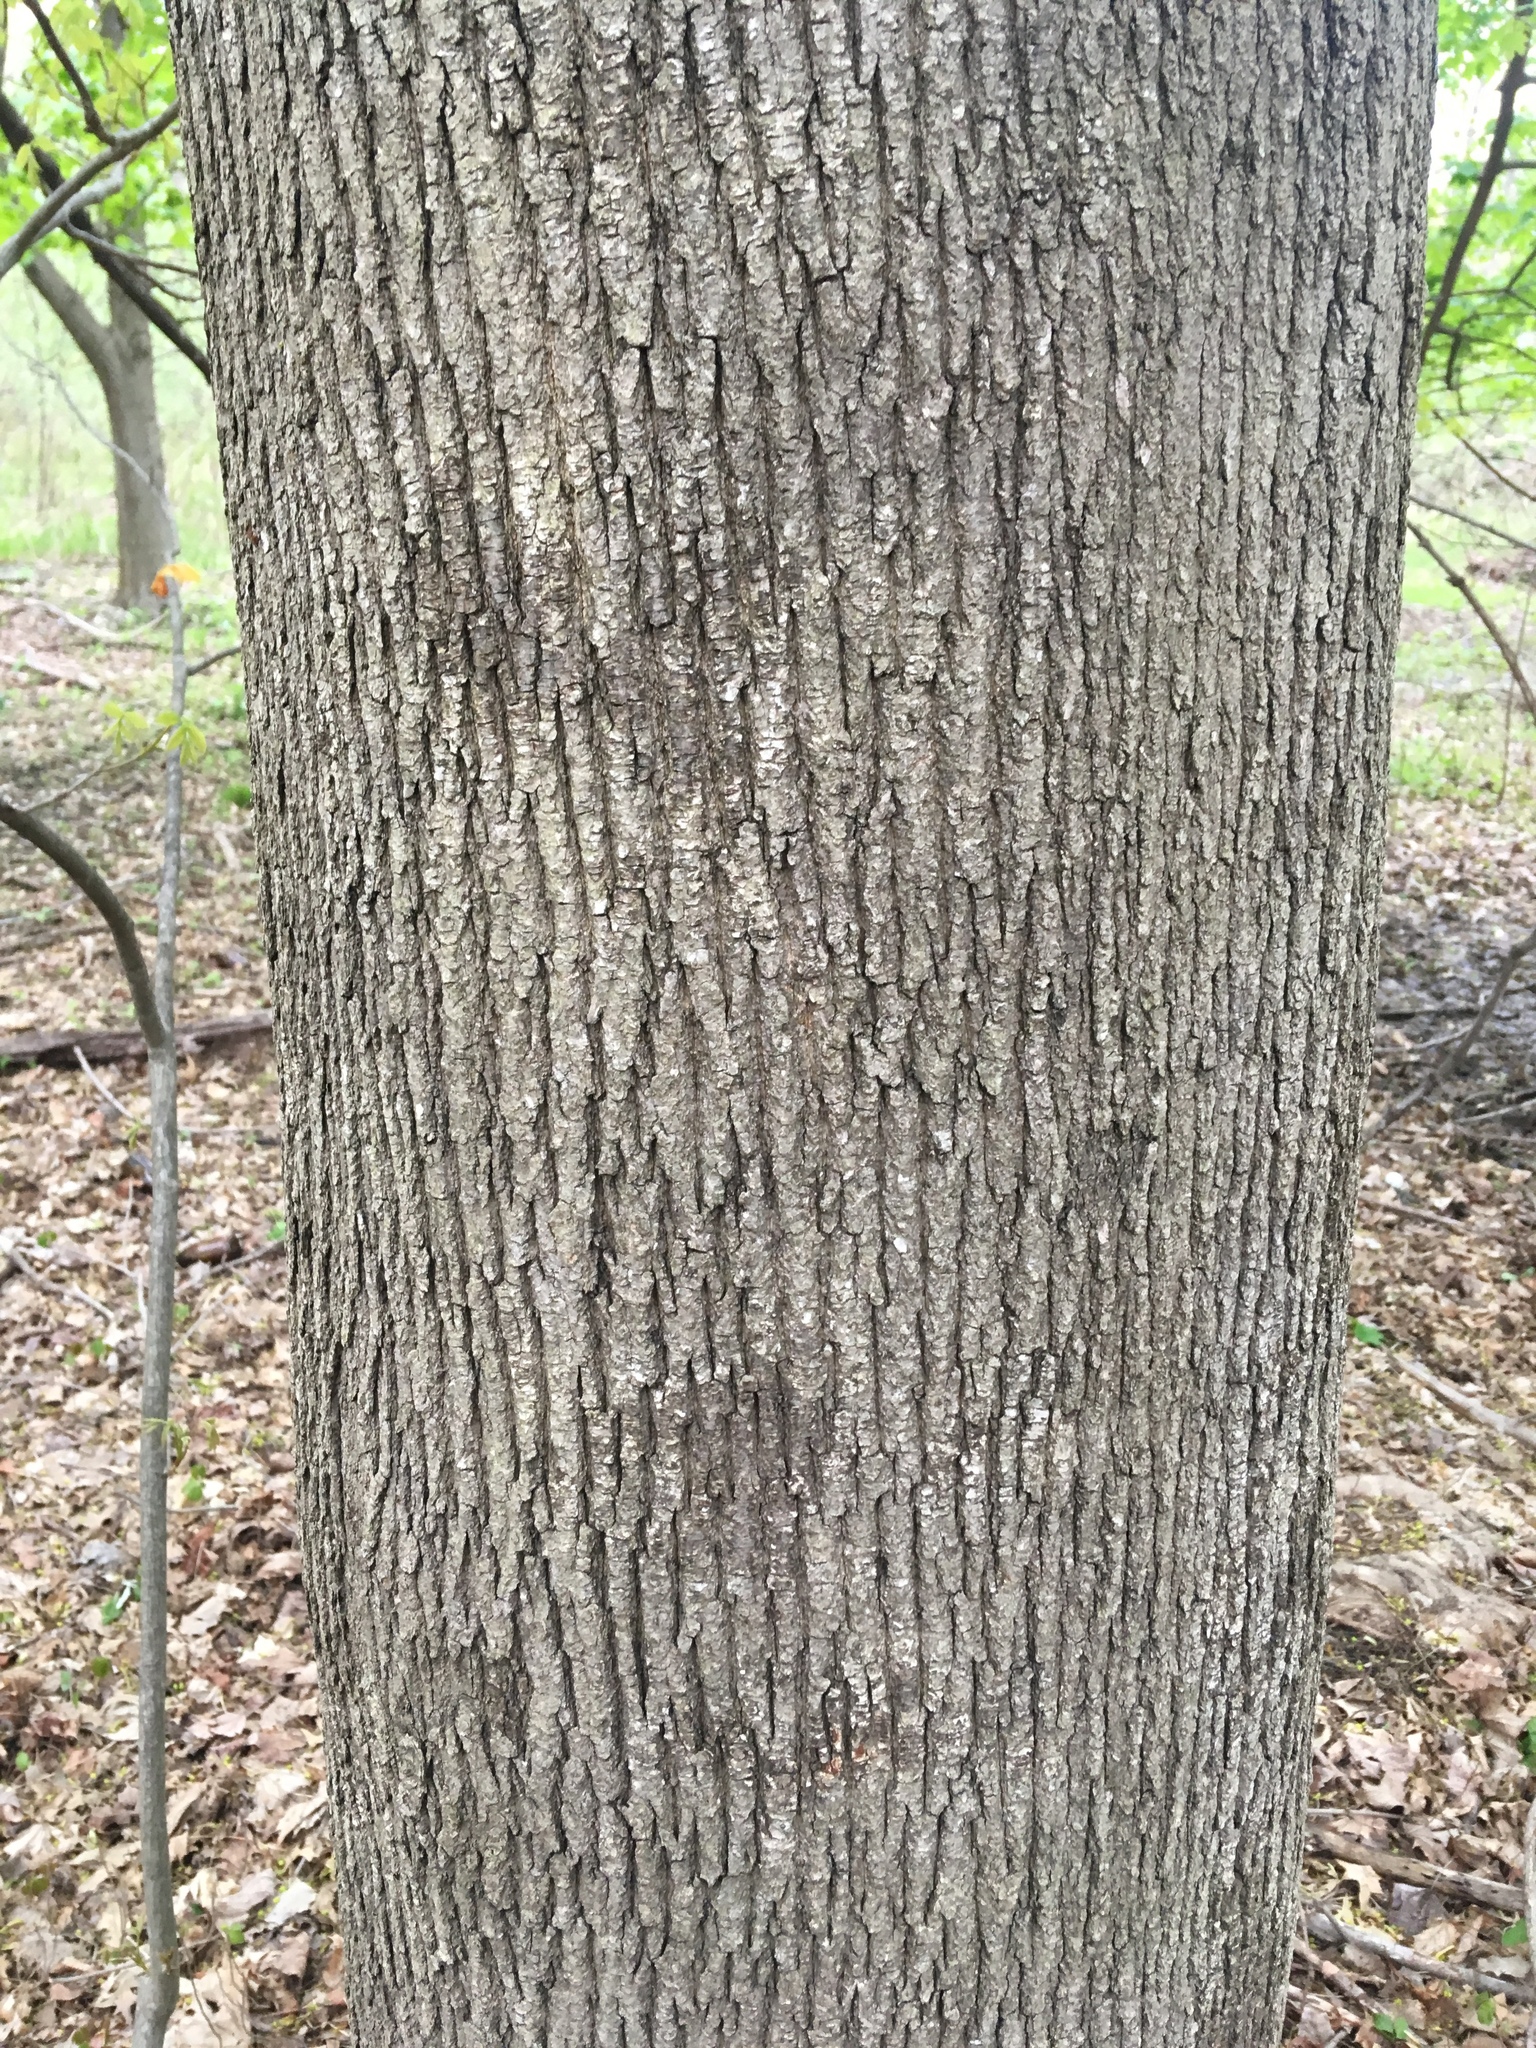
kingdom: Plantae
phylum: Tracheophyta
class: Magnoliopsida
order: Sapindales
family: Sapindaceae
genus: Acer
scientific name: Acer platanoides
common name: Norway maple
